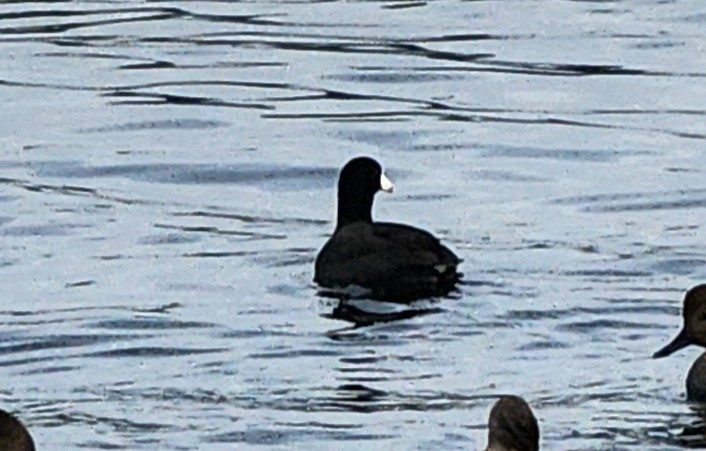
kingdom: Animalia
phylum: Chordata
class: Aves
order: Gruiformes
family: Rallidae
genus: Fulica
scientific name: Fulica americana
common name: American coot
